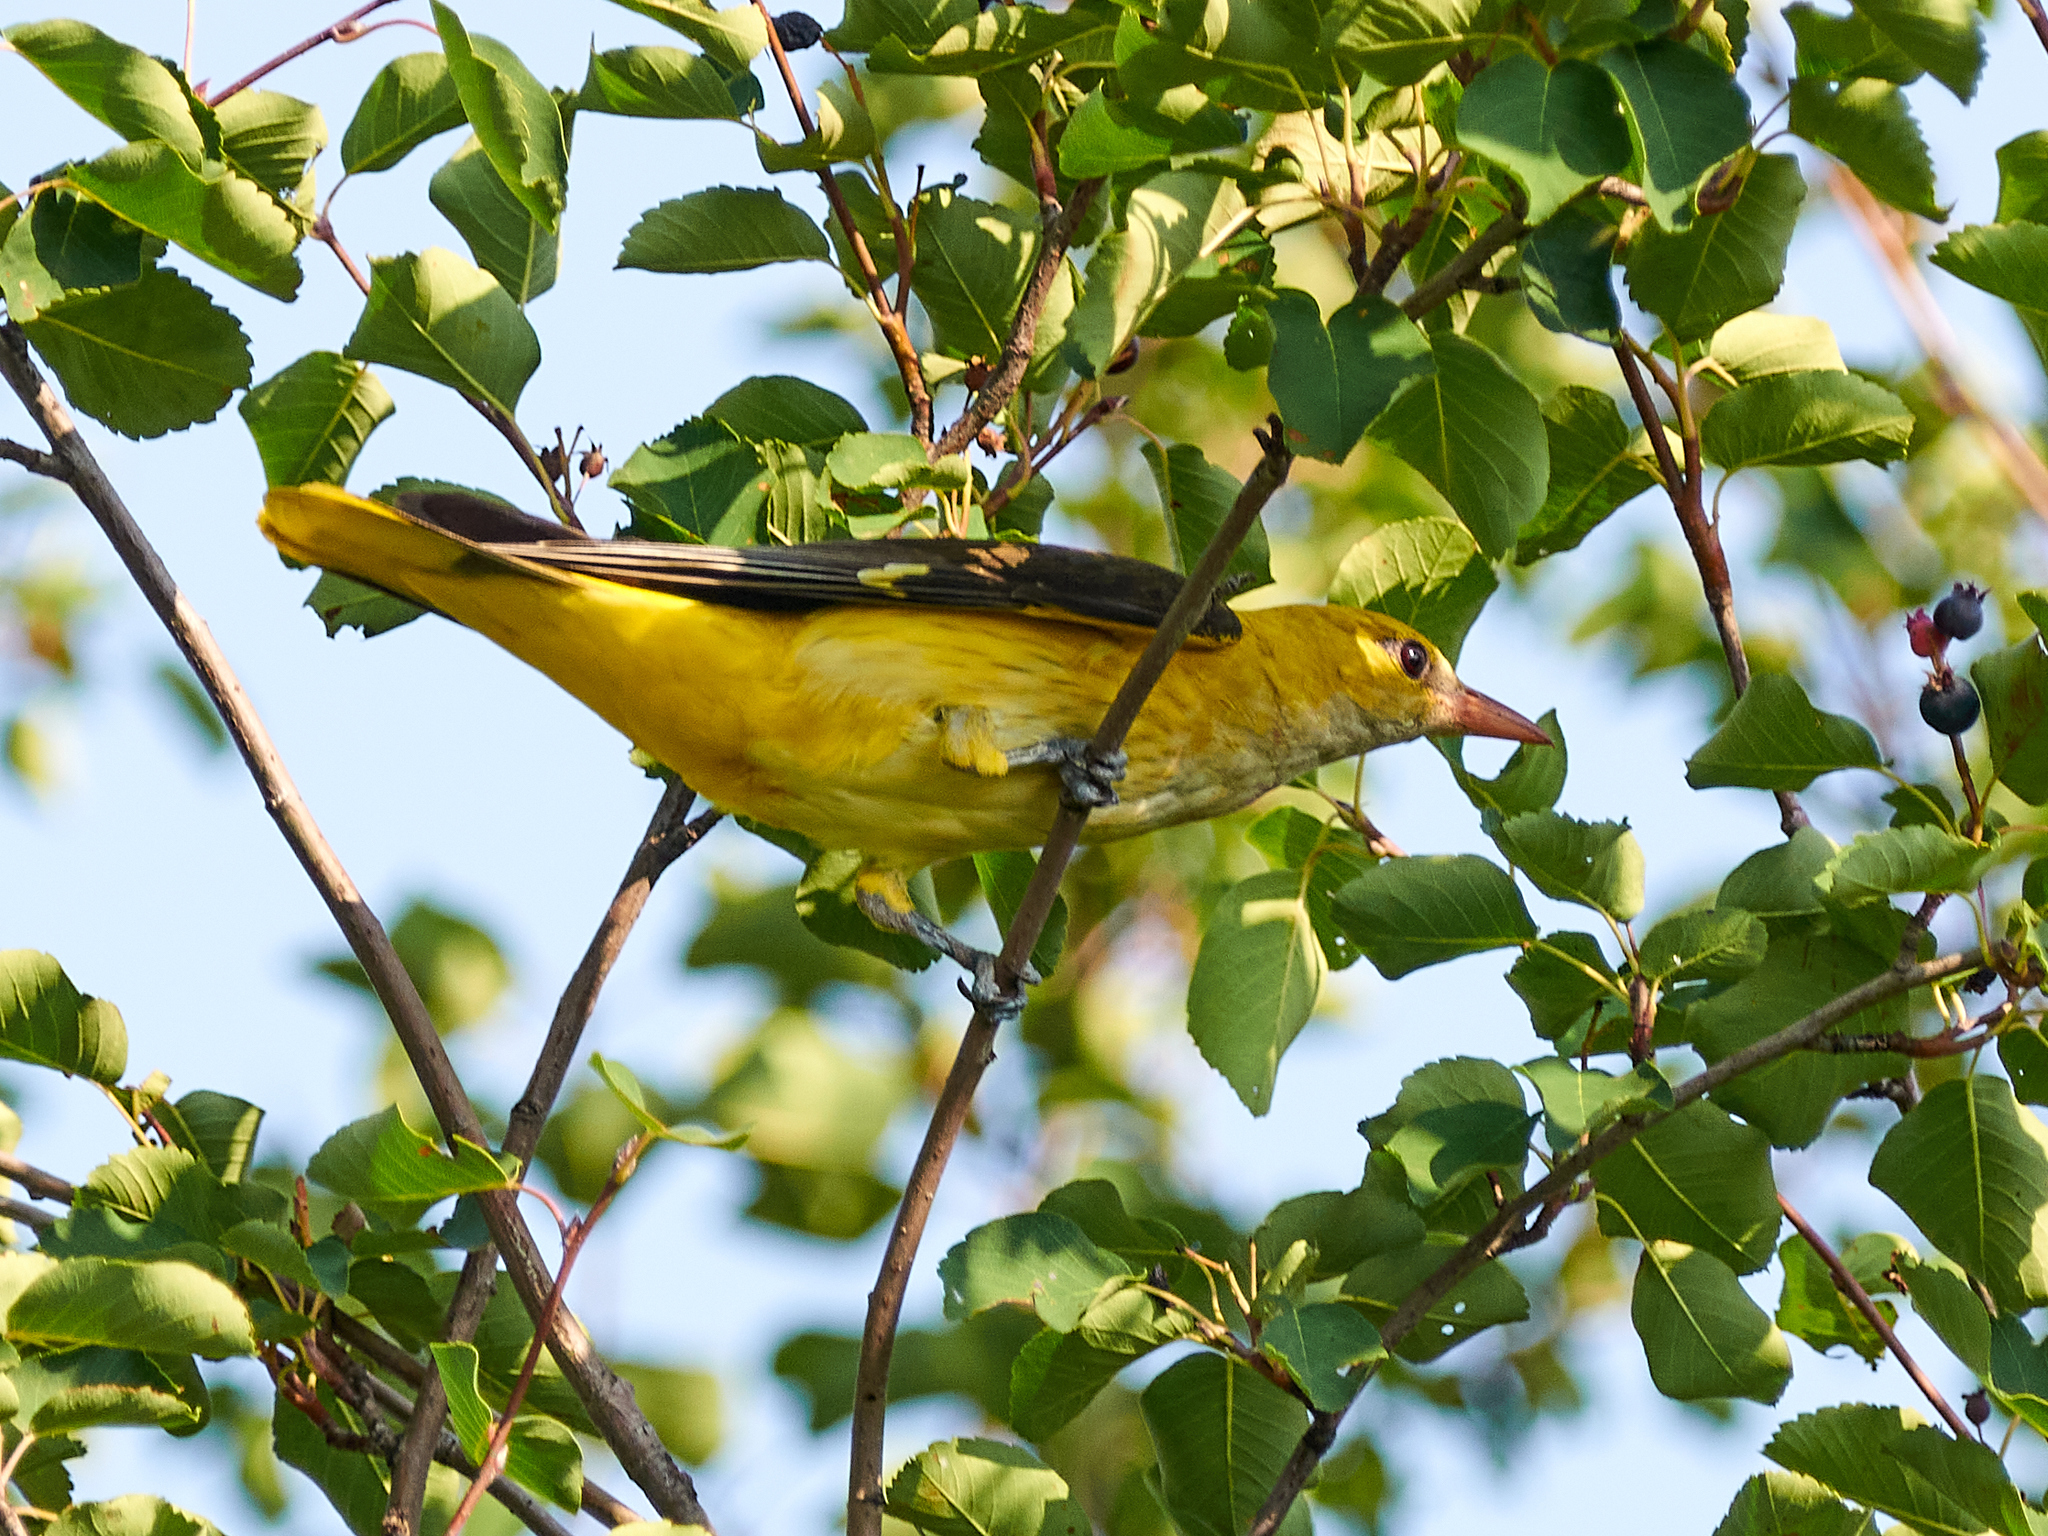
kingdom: Animalia
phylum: Chordata
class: Aves
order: Passeriformes
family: Oriolidae
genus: Oriolus
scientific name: Oriolus oriolus
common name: Eurasian golden oriole
